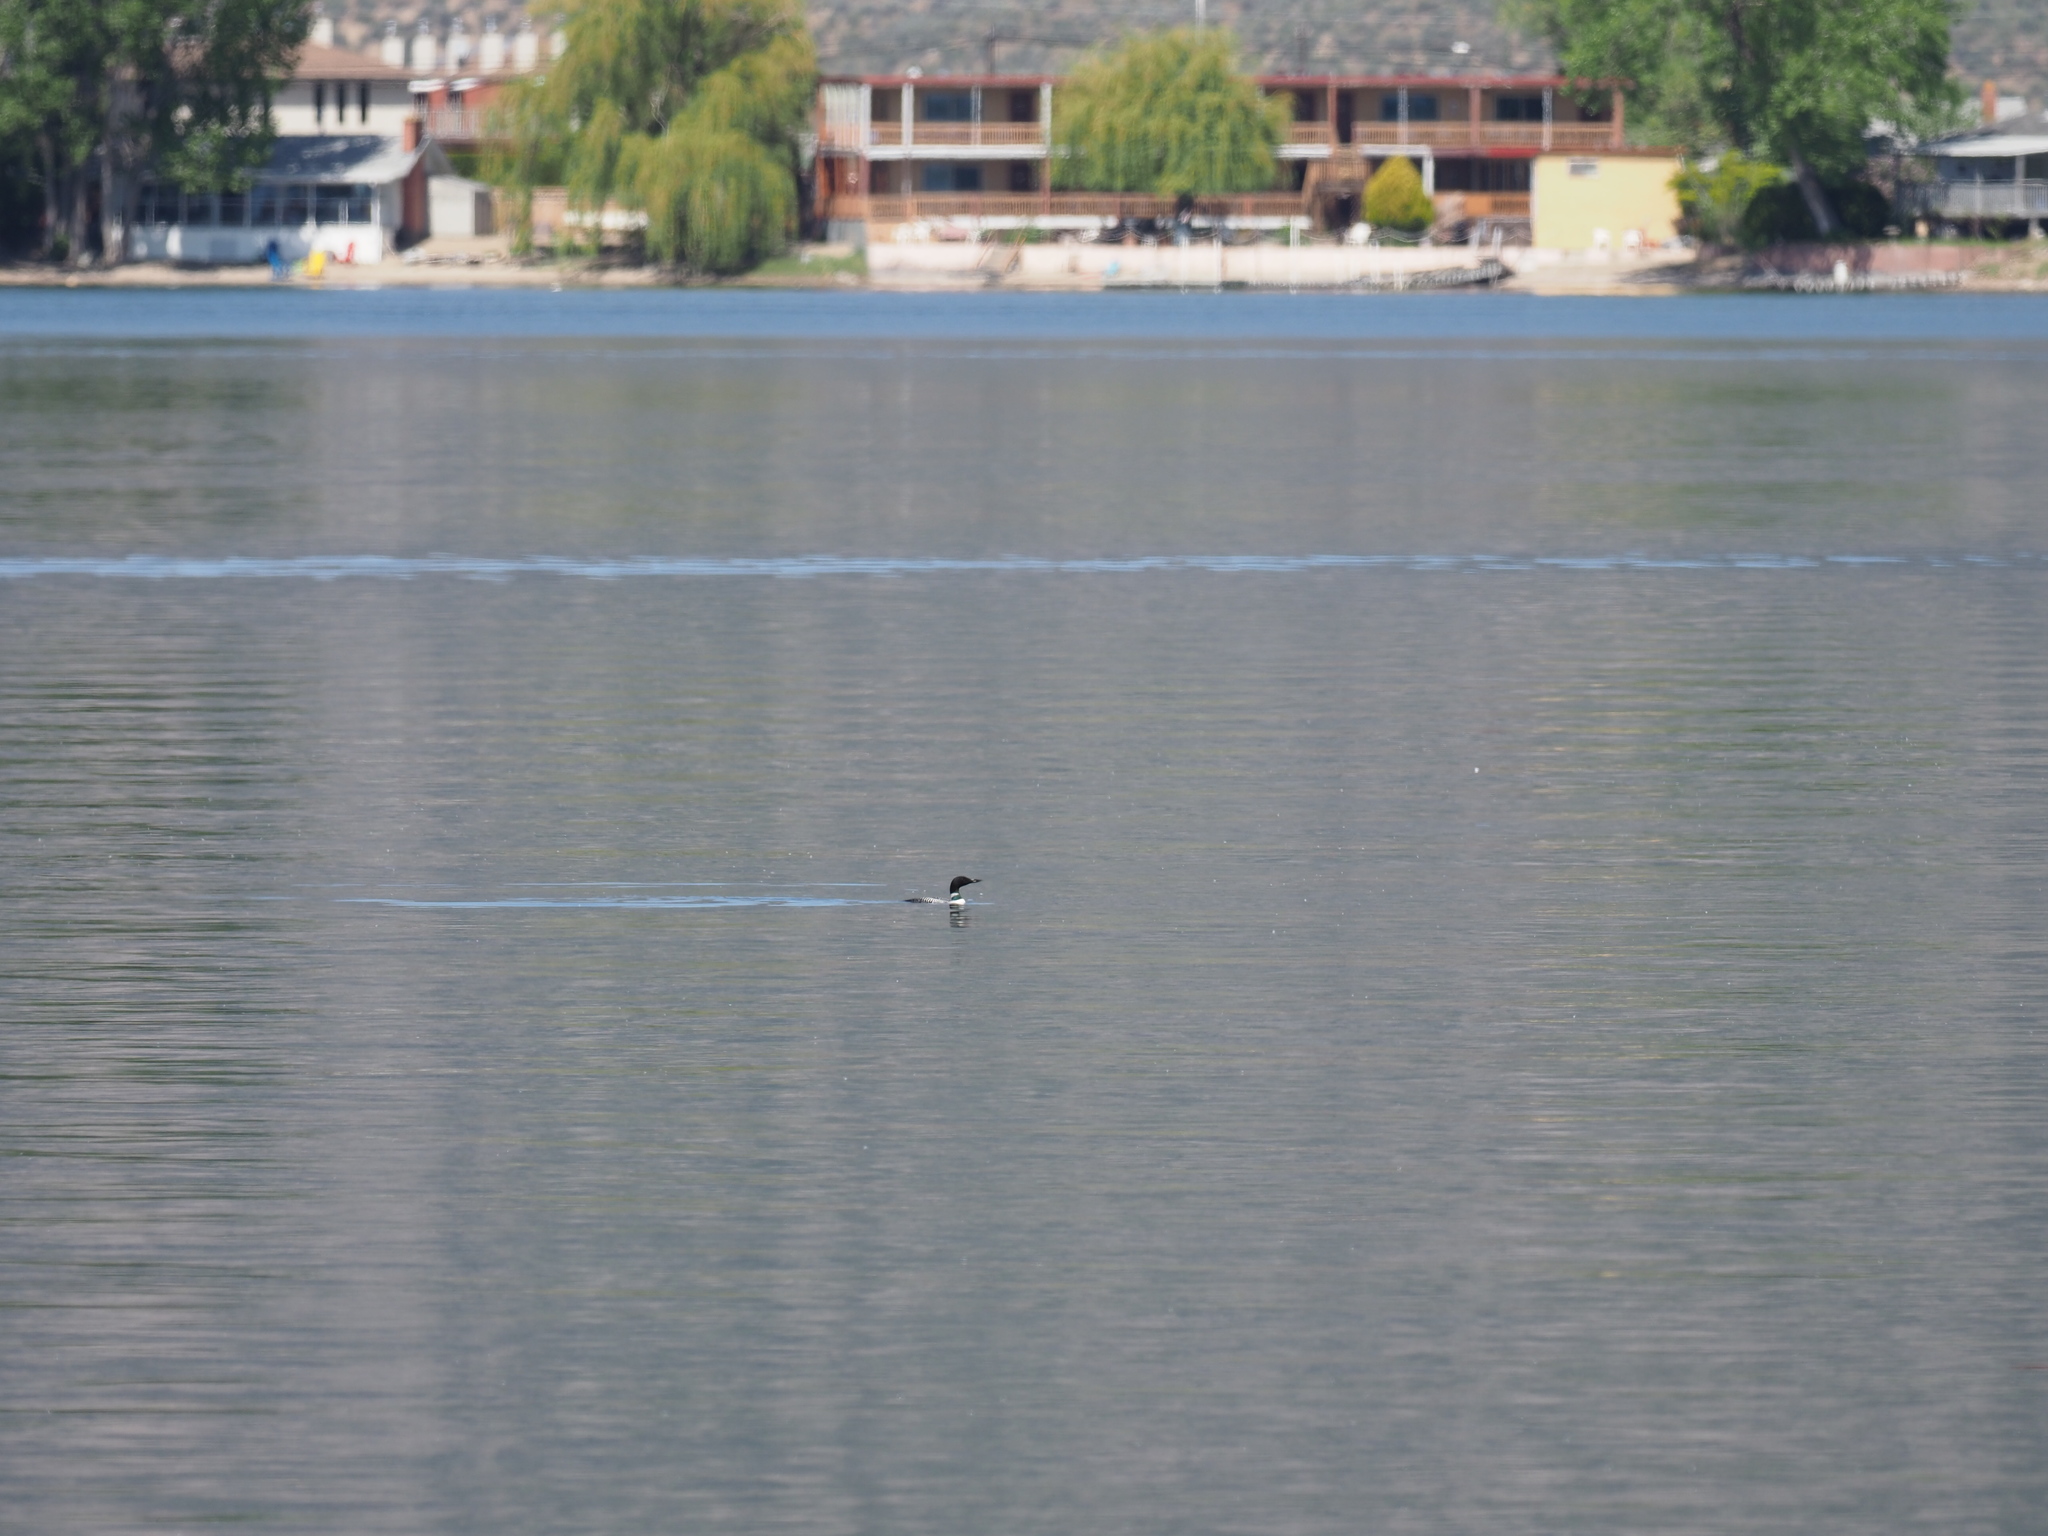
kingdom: Animalia
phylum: Chordata
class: Aves
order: Gaviiformes
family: Gaviidae
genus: Gavia
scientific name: Gavia immer
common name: Common loon
